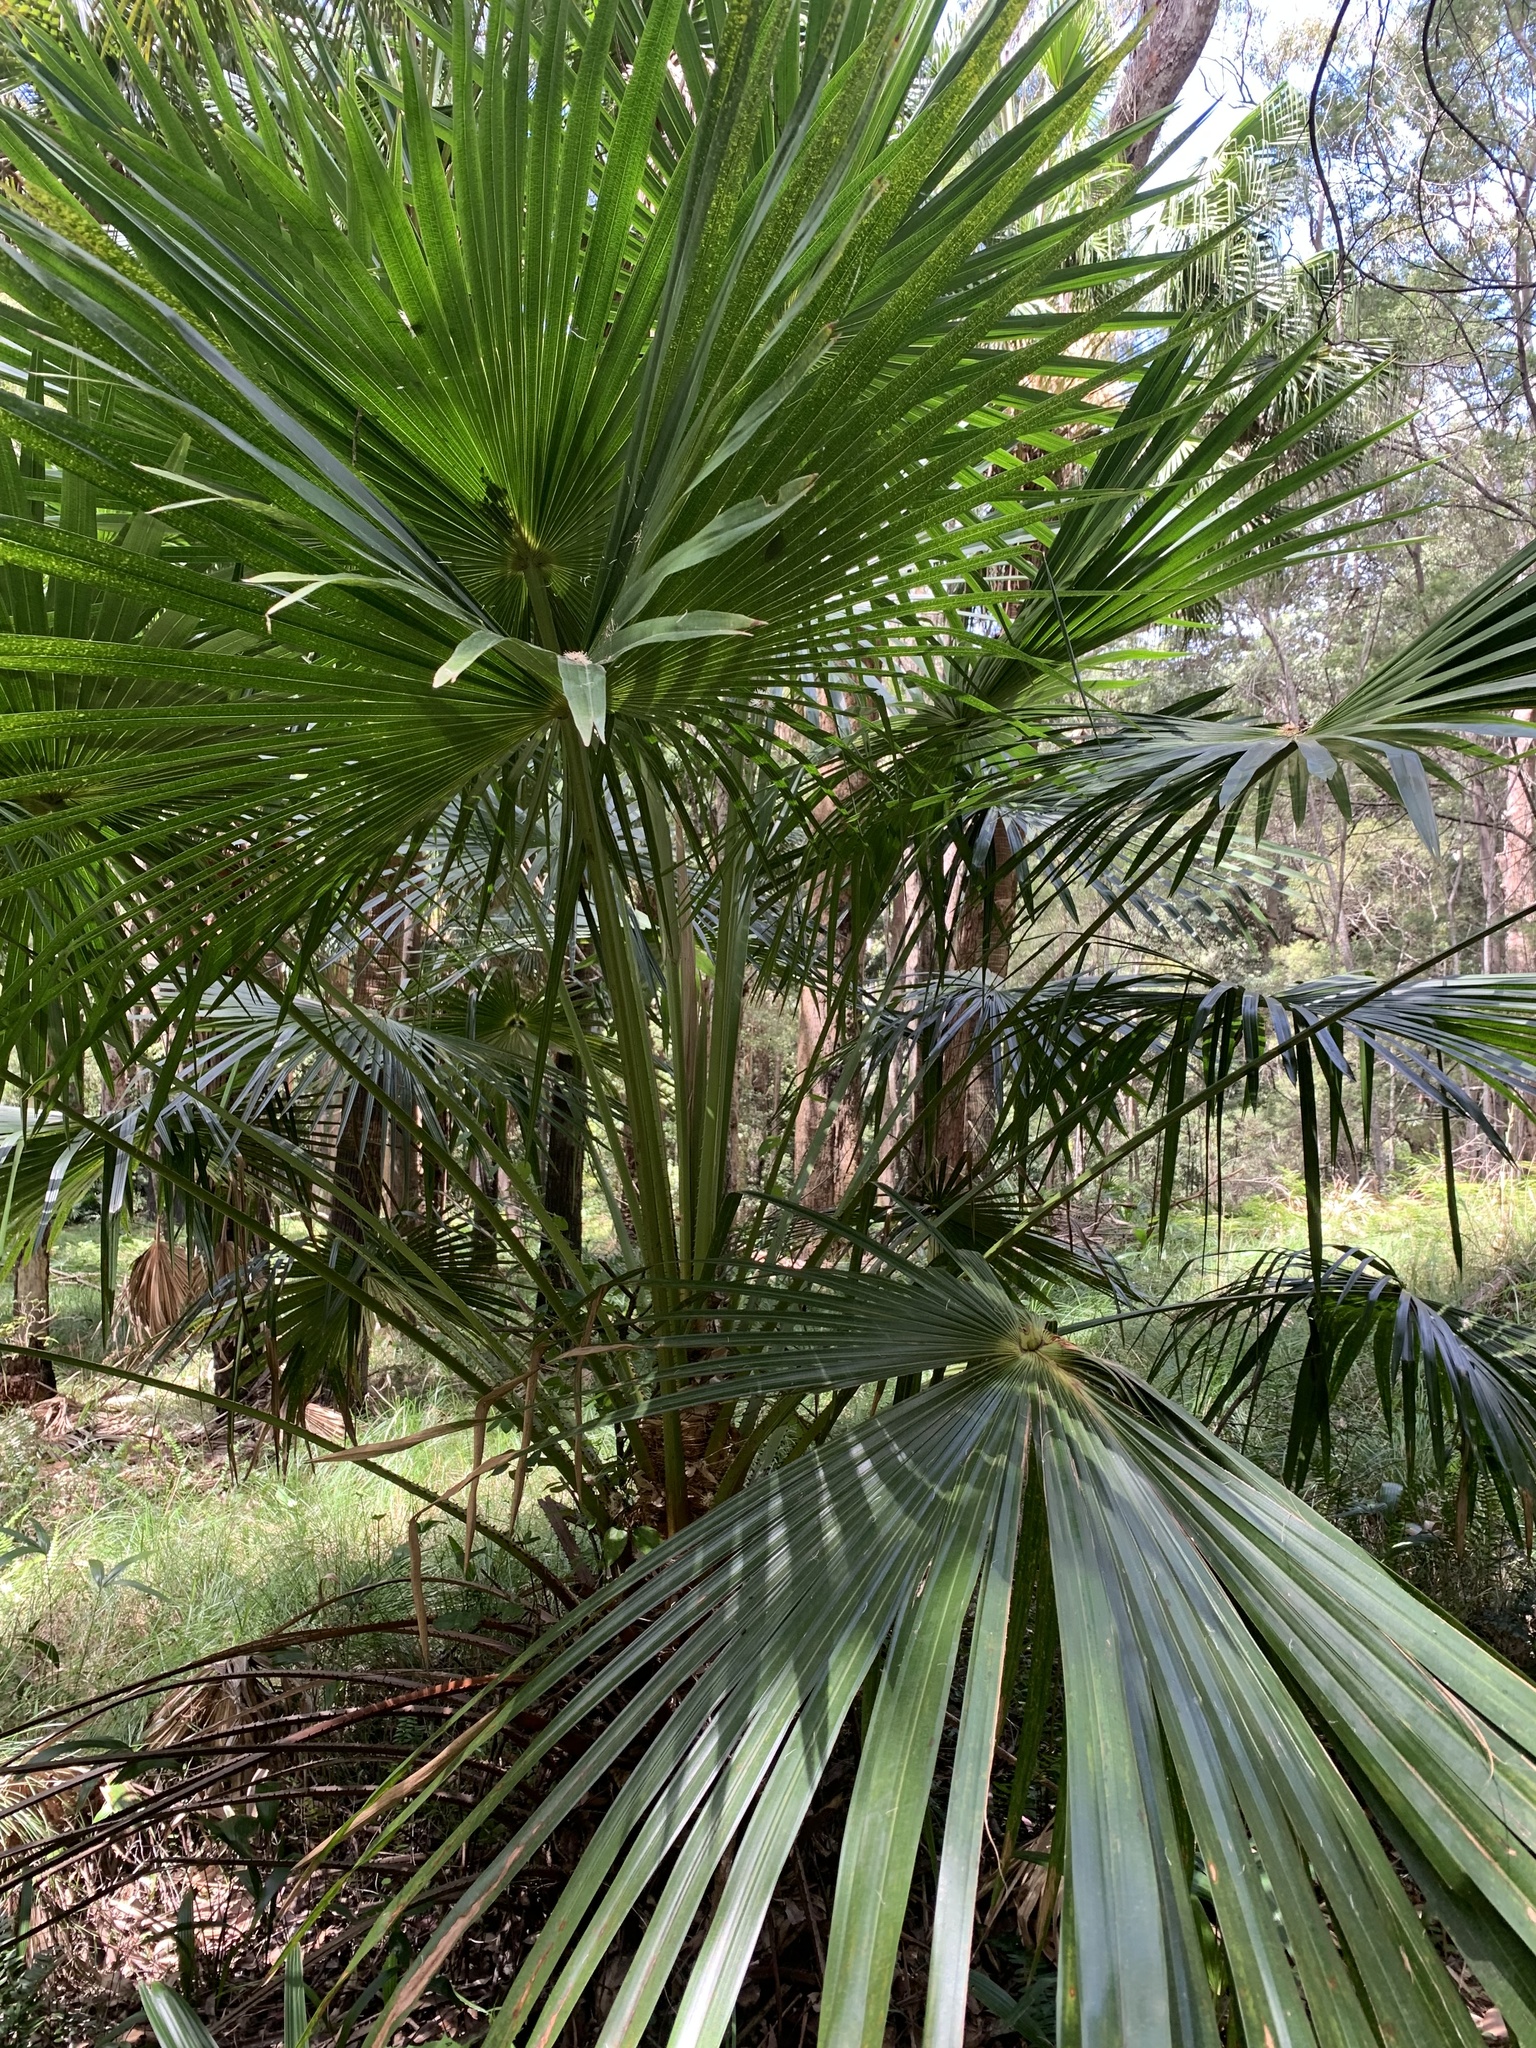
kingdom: Plantae
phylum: Tracheophyta
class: Liliopsida
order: Arecales
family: Arecaceae
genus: Livistona
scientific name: Livistona australis
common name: Cabbage fan palm
